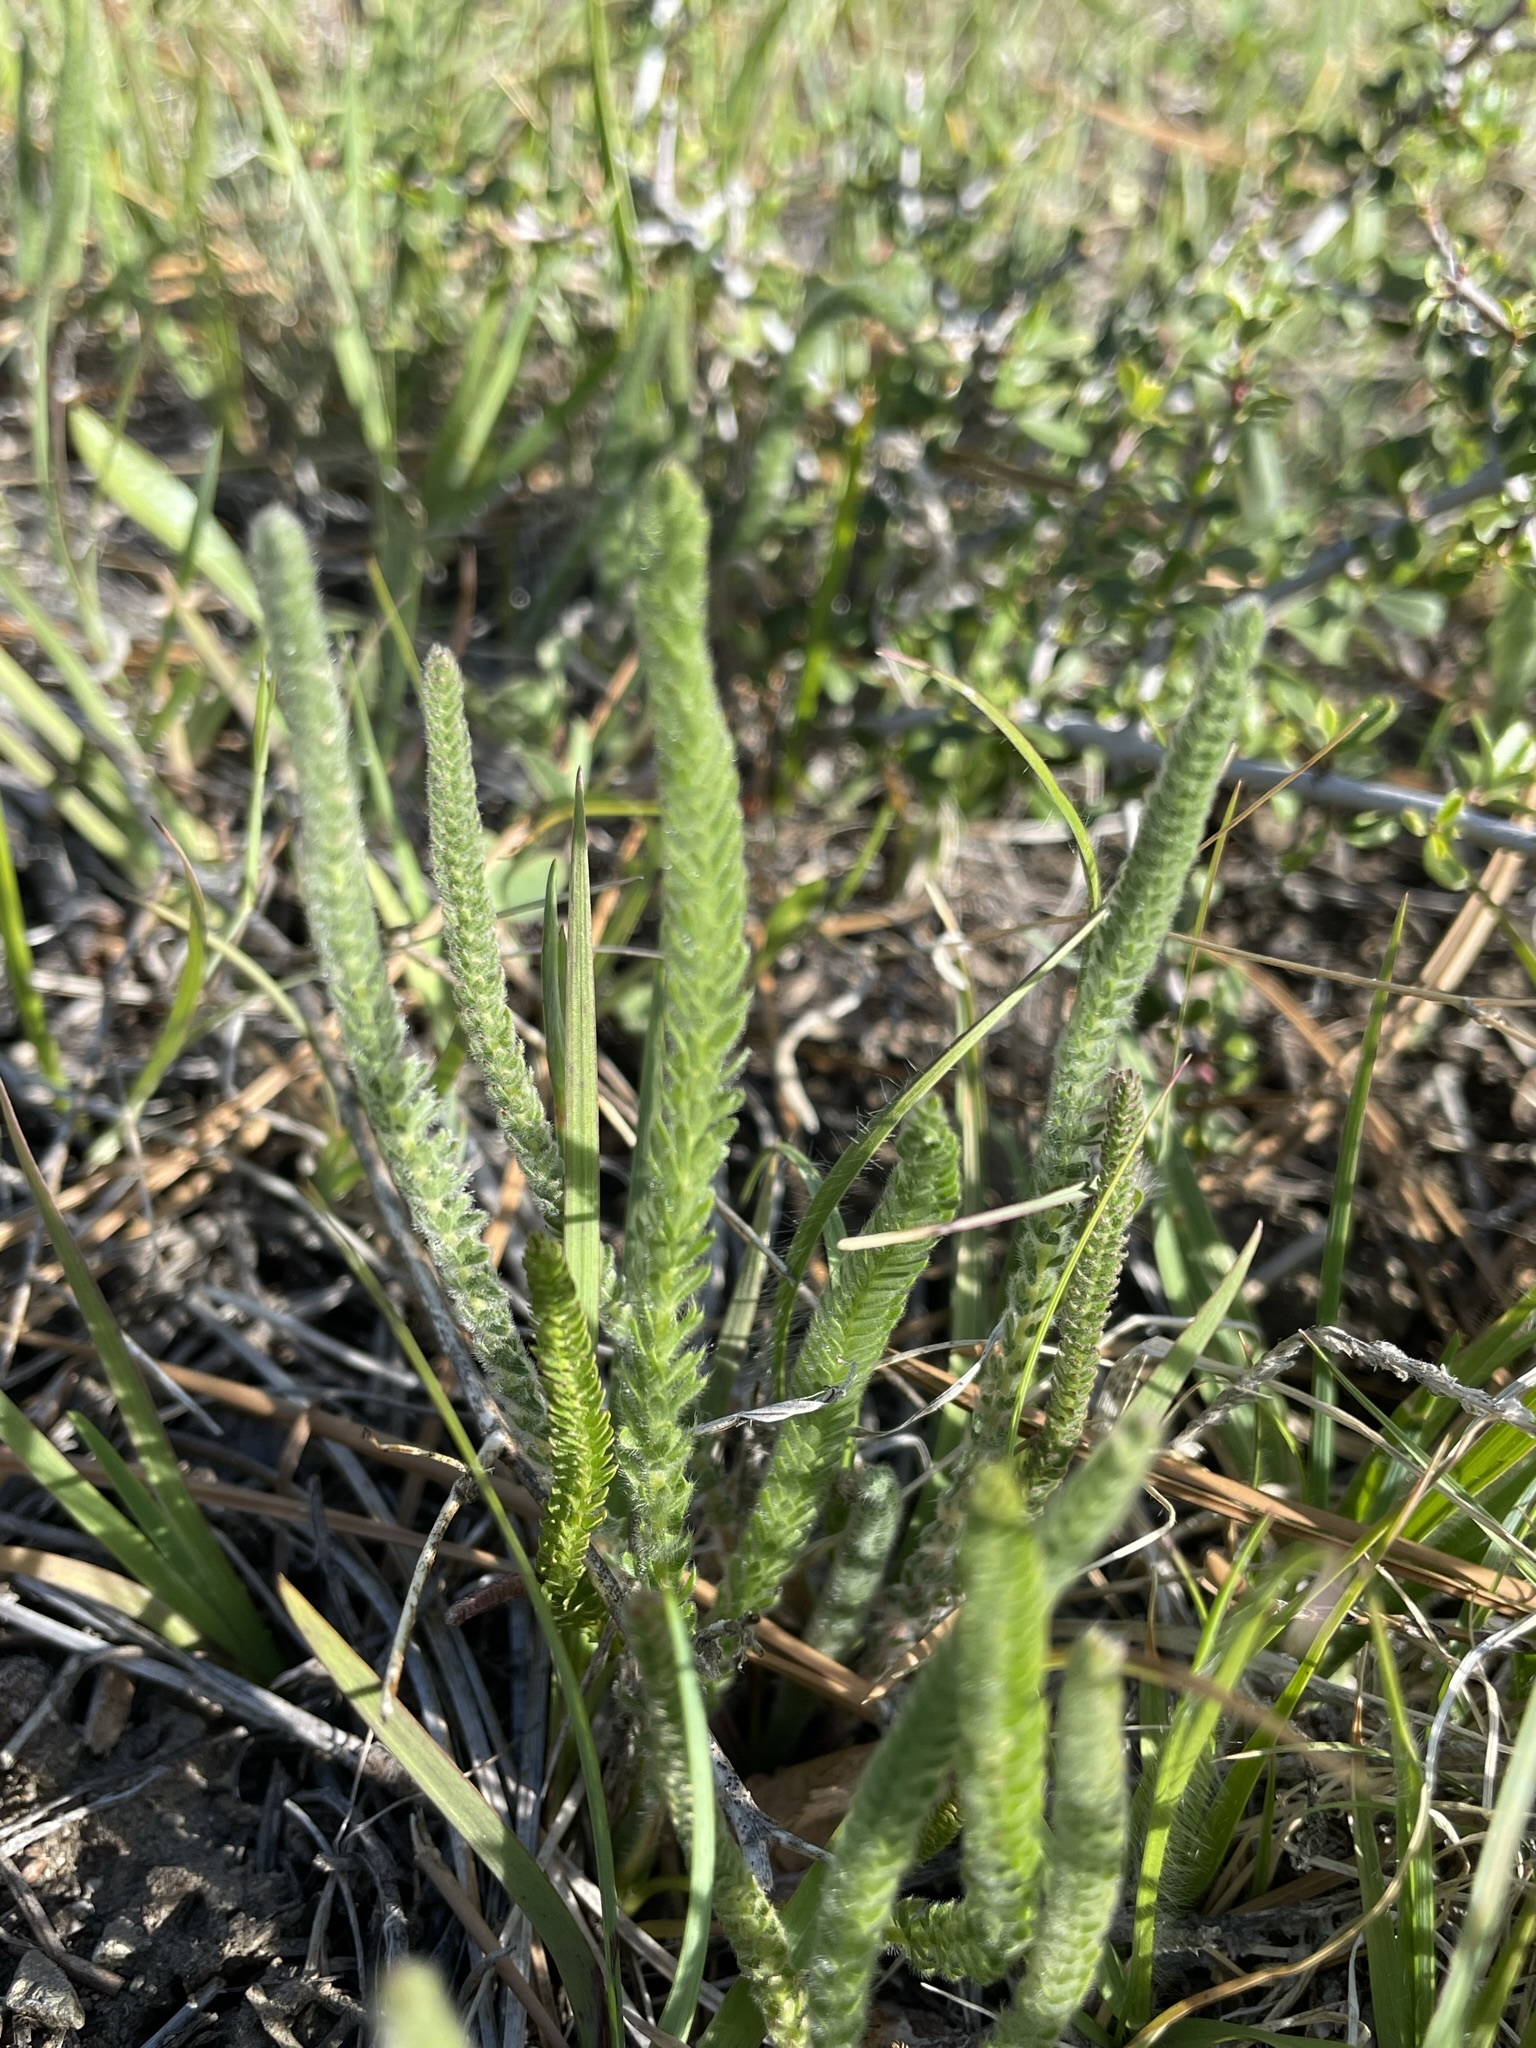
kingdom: Plantae
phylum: Tracheophyta
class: Magnoliopsida
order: Rosales
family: Rosaceae
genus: Potentilla
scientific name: Potentilla pickeringii
